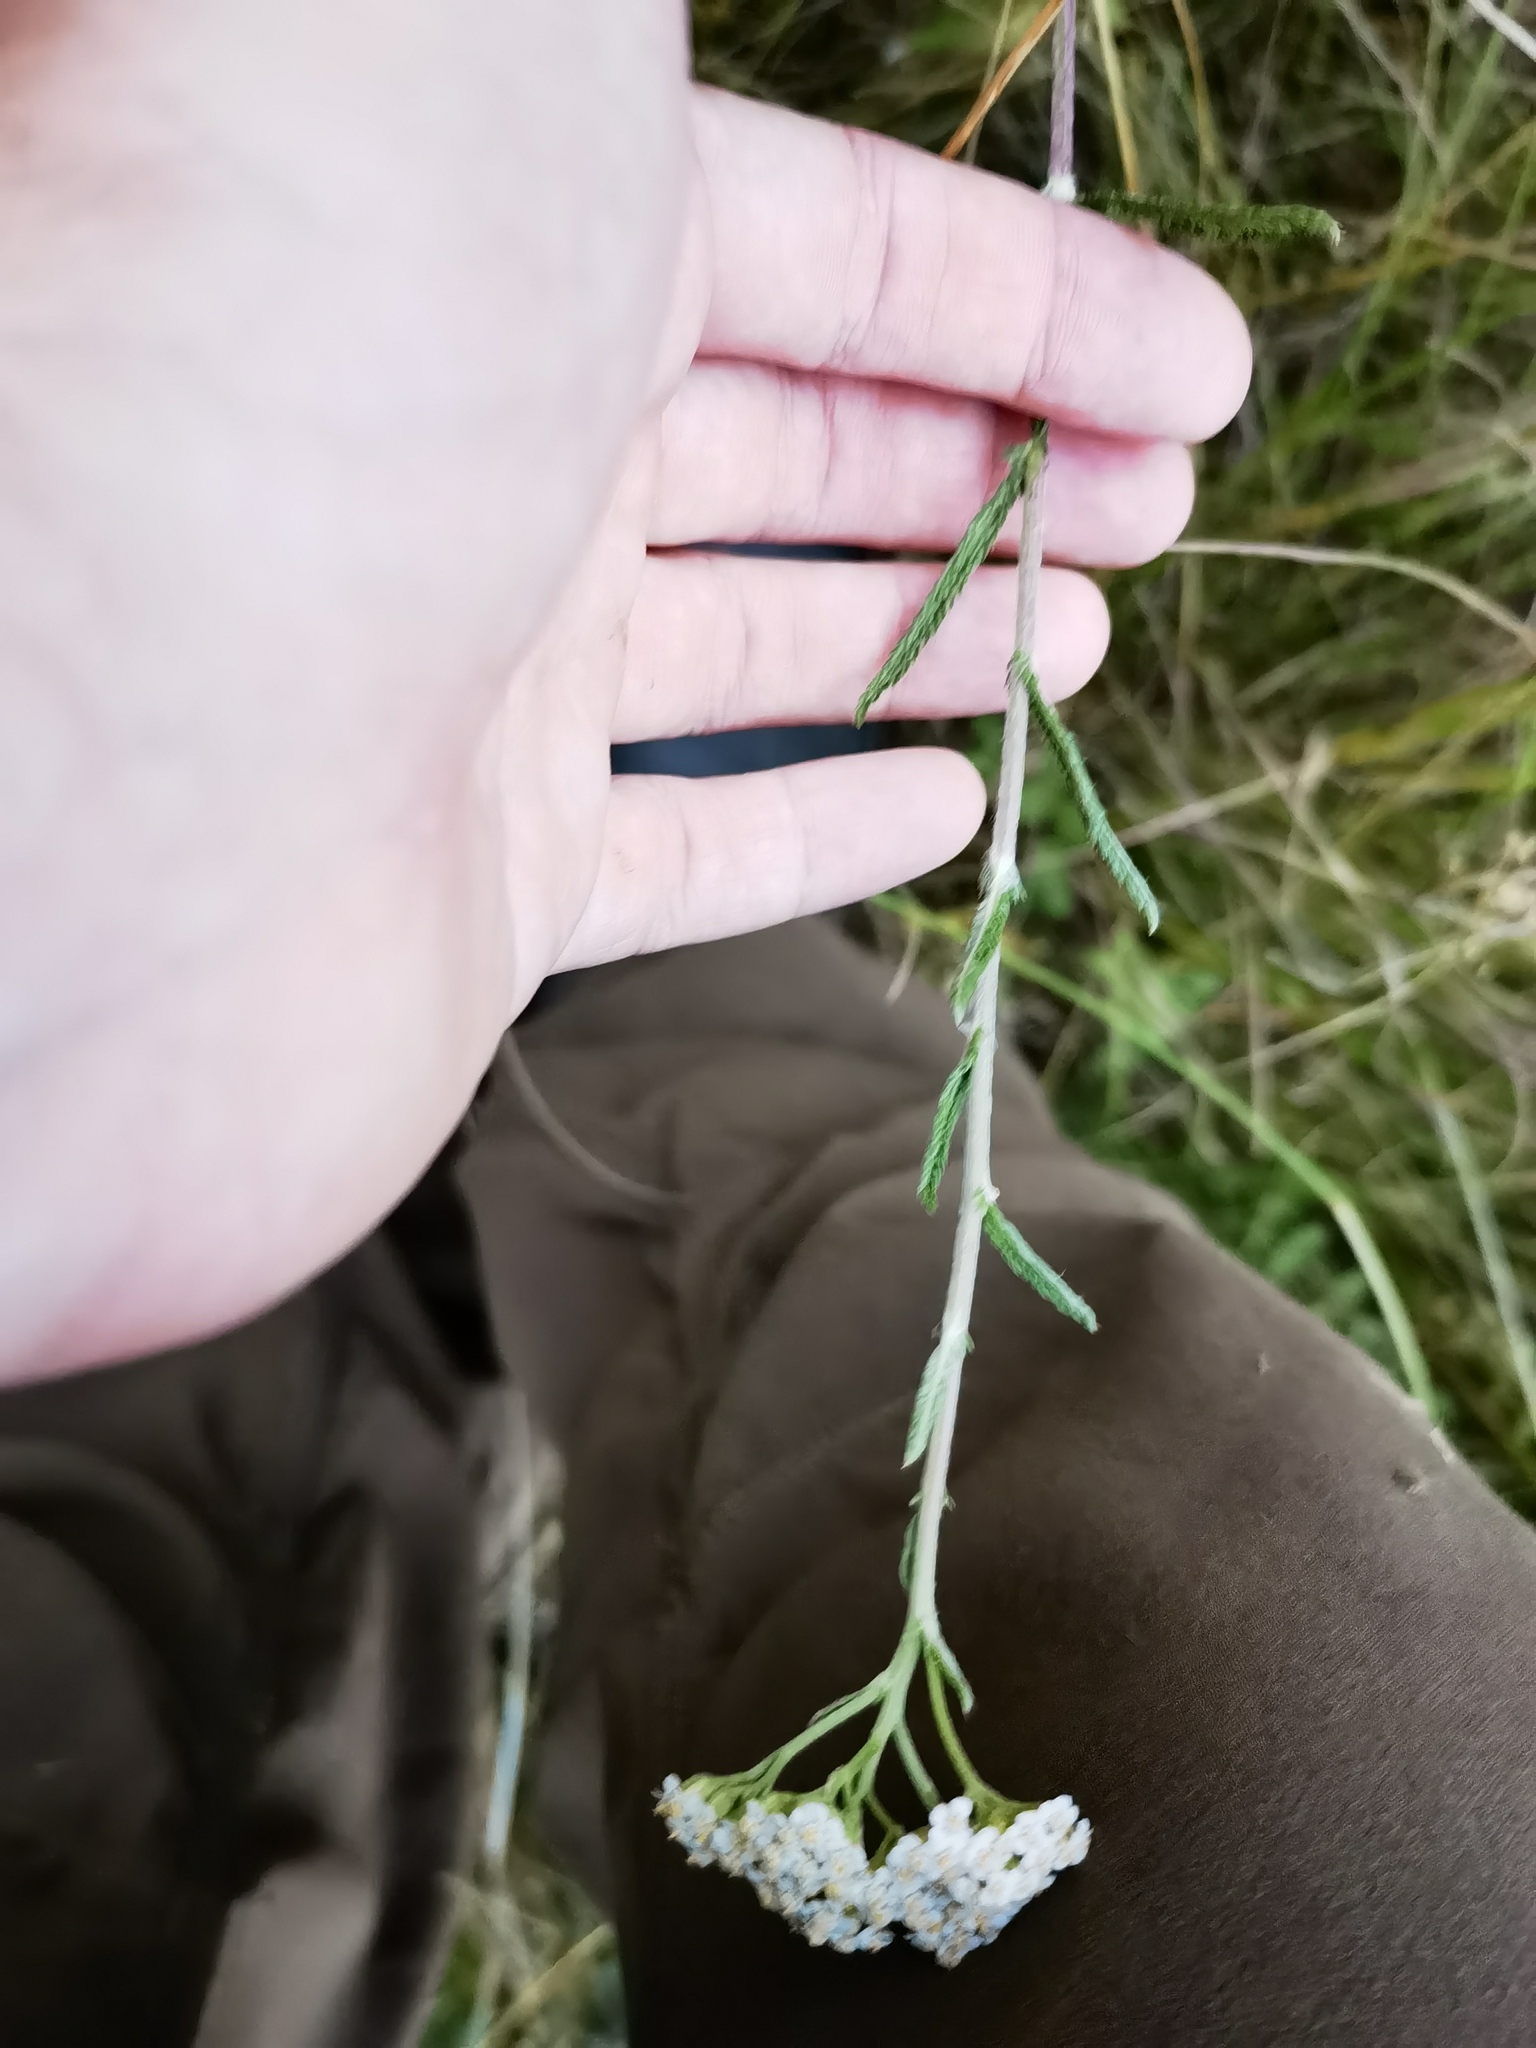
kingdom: Plantae
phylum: Tracheophyta
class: Magnoliopsida
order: Asterales
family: Asteraceae
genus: Achillea
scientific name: Achillea millefolium
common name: Yarrow
